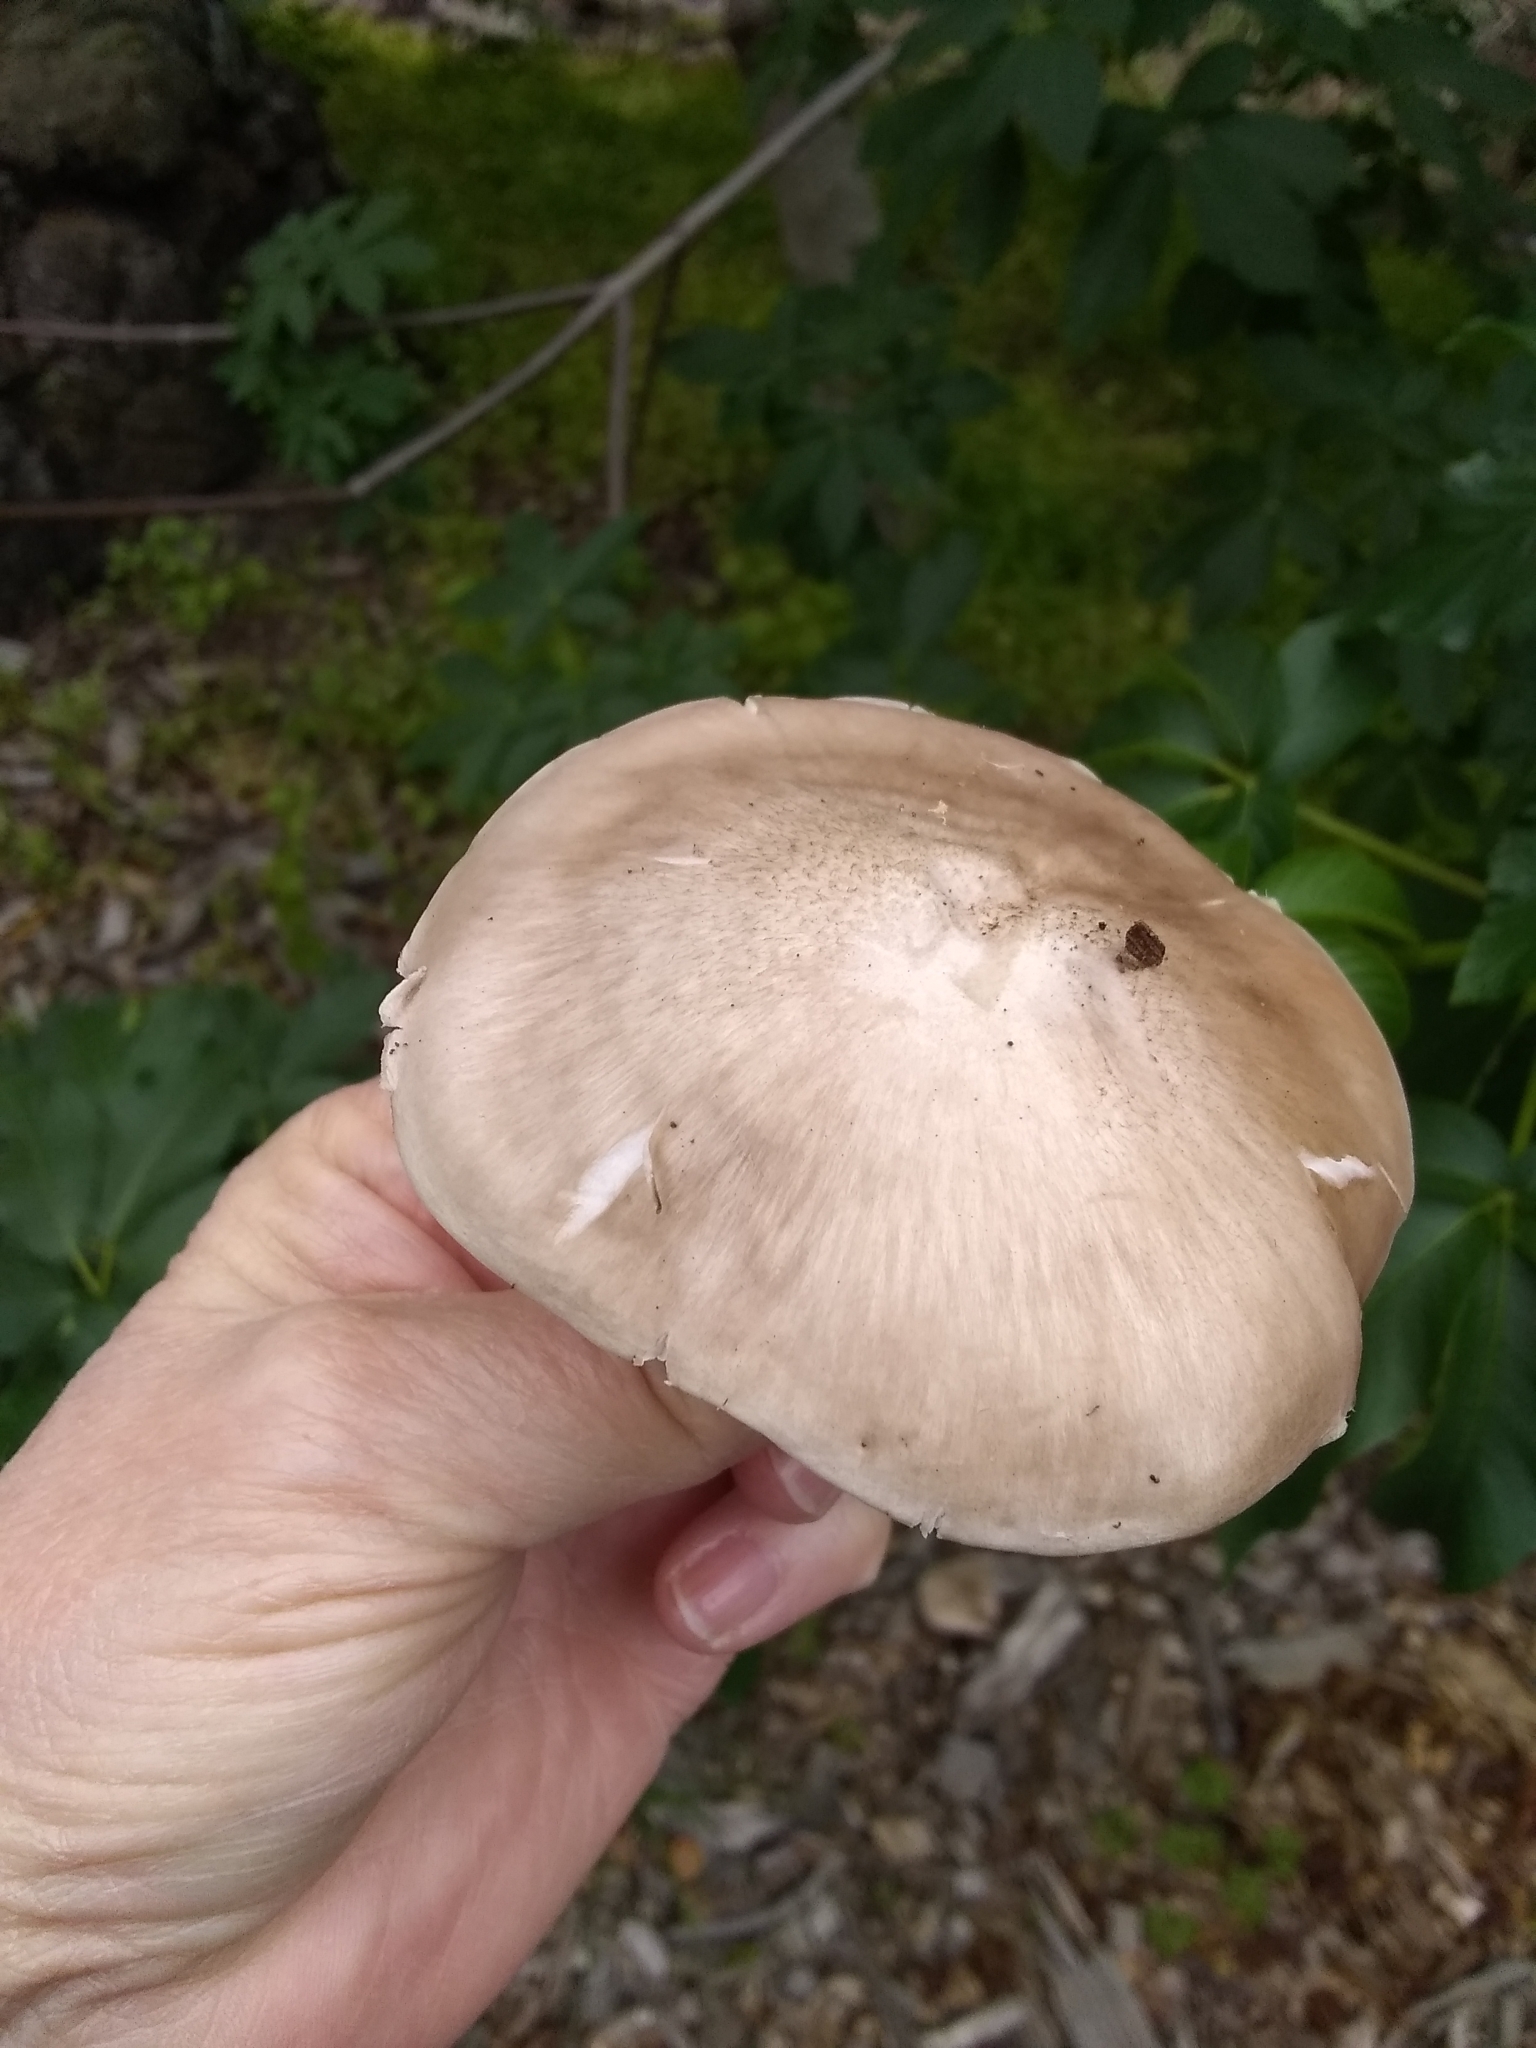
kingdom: Fungi
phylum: Basidiomycota
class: Agaricomycetes
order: Agaricales
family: Pluteaceae
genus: Pluteus
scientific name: Pluteus petasatus
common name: Scaly shield
